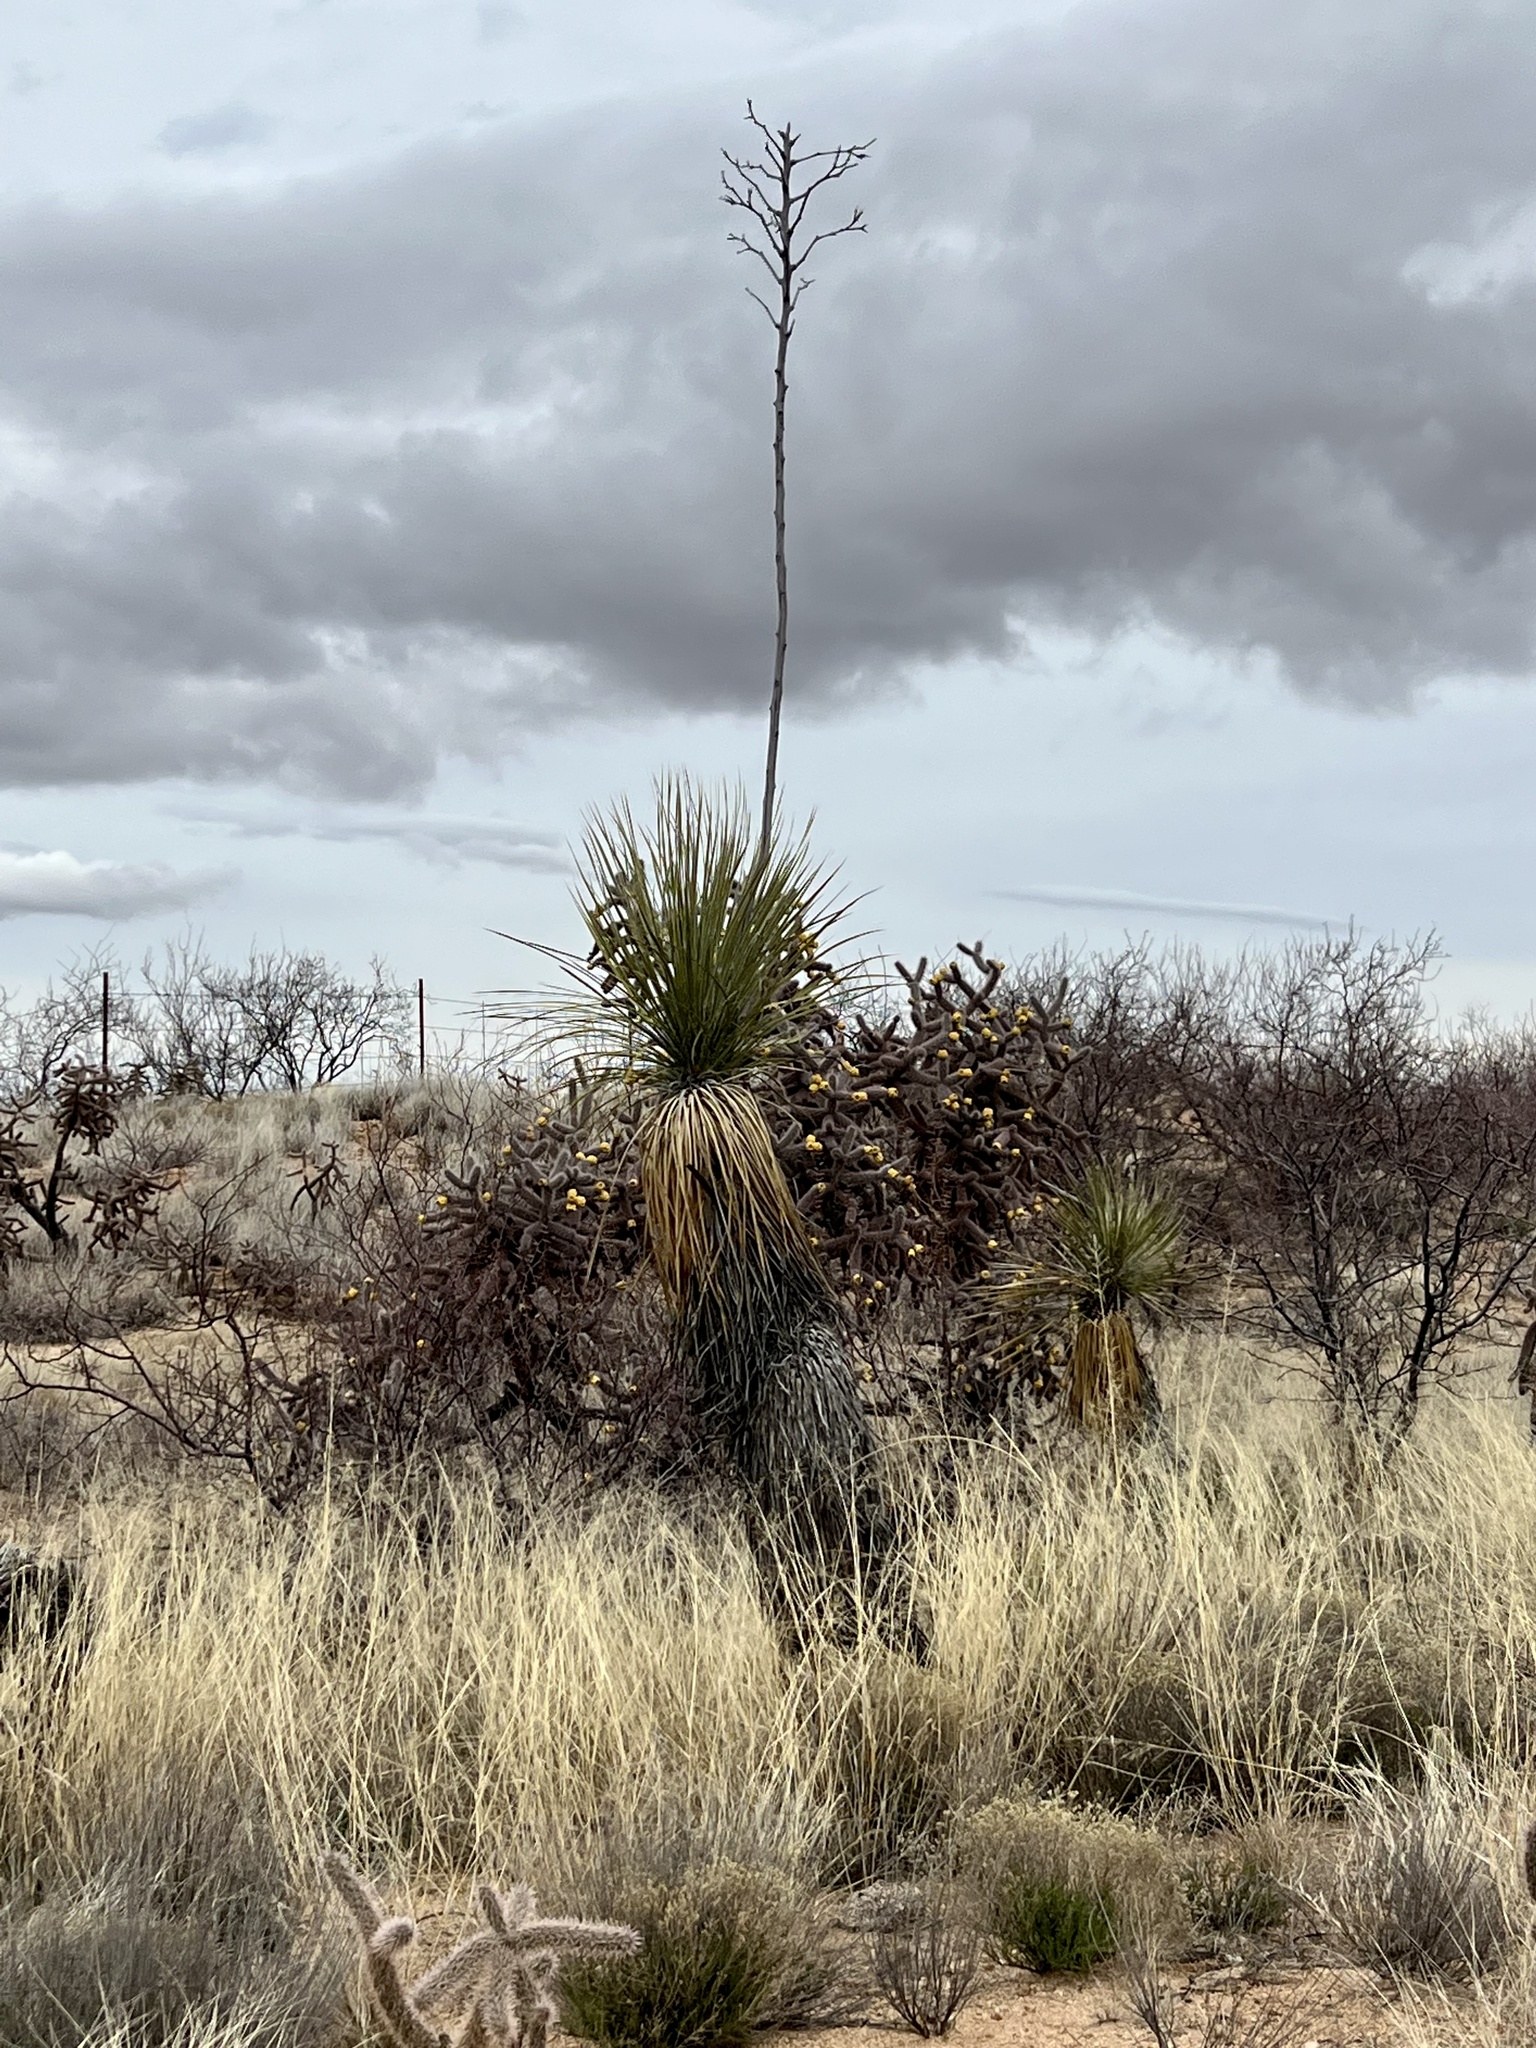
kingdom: Plantae
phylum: Tracheophyta
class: Liliopsida
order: Asparagales
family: Asparagaceae
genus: Yucca
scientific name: Yucca elata
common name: Palmella
